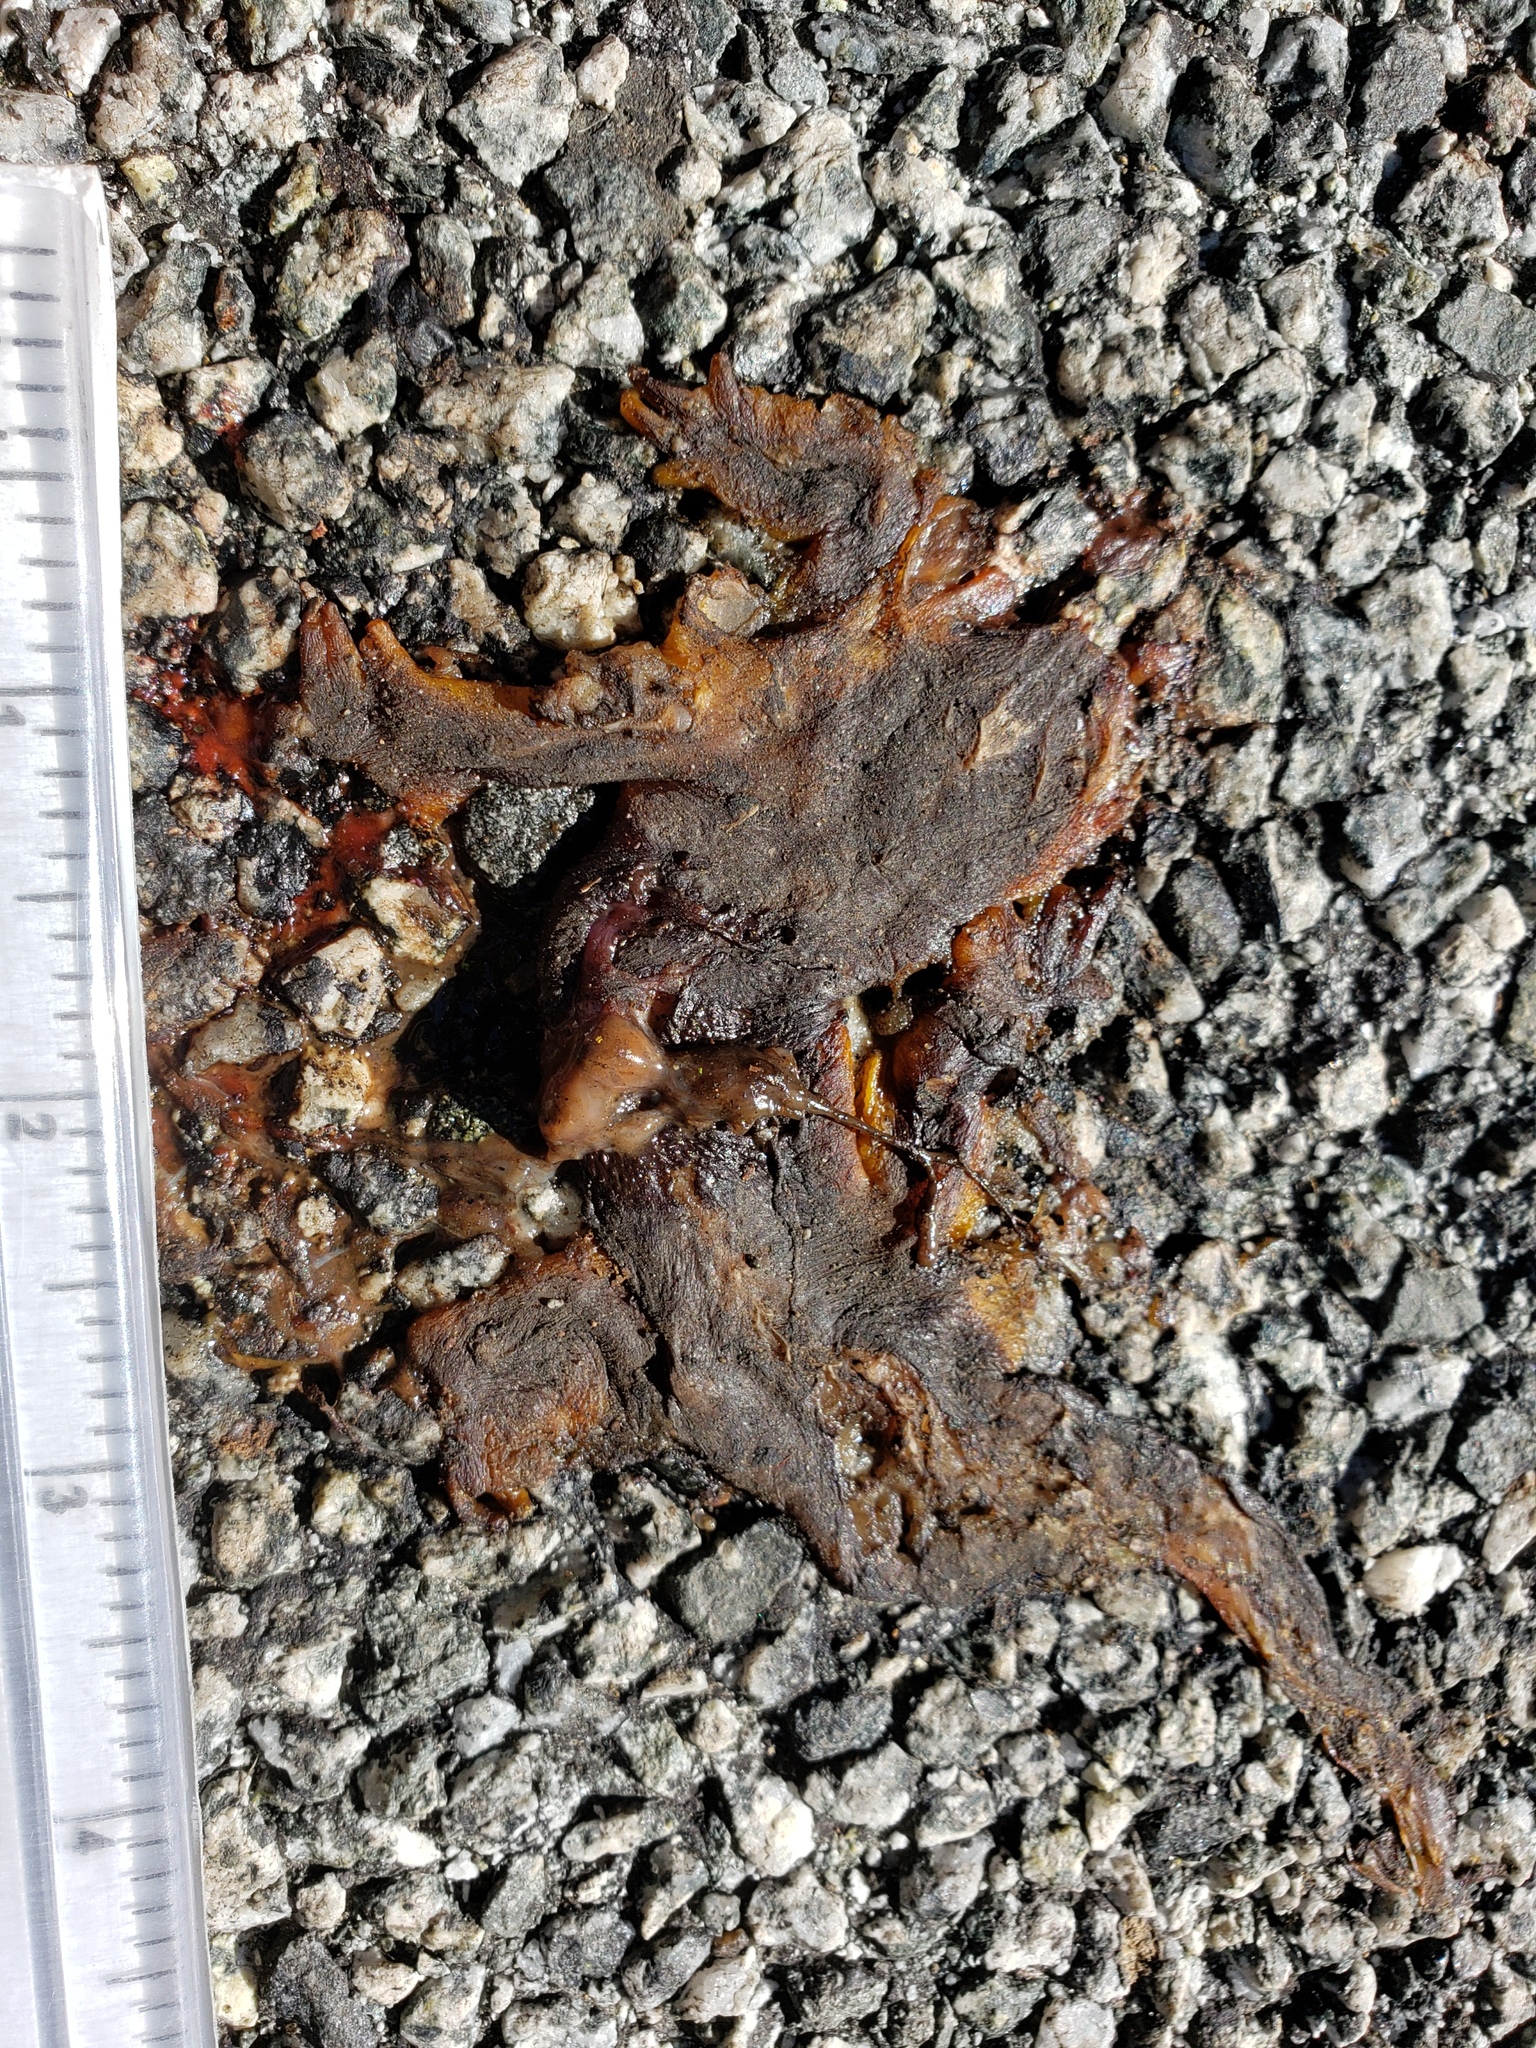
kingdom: Animalia
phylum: Chordata
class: Amphibia
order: Caudata
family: Salamandridae
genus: Taricha
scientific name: Taricha
